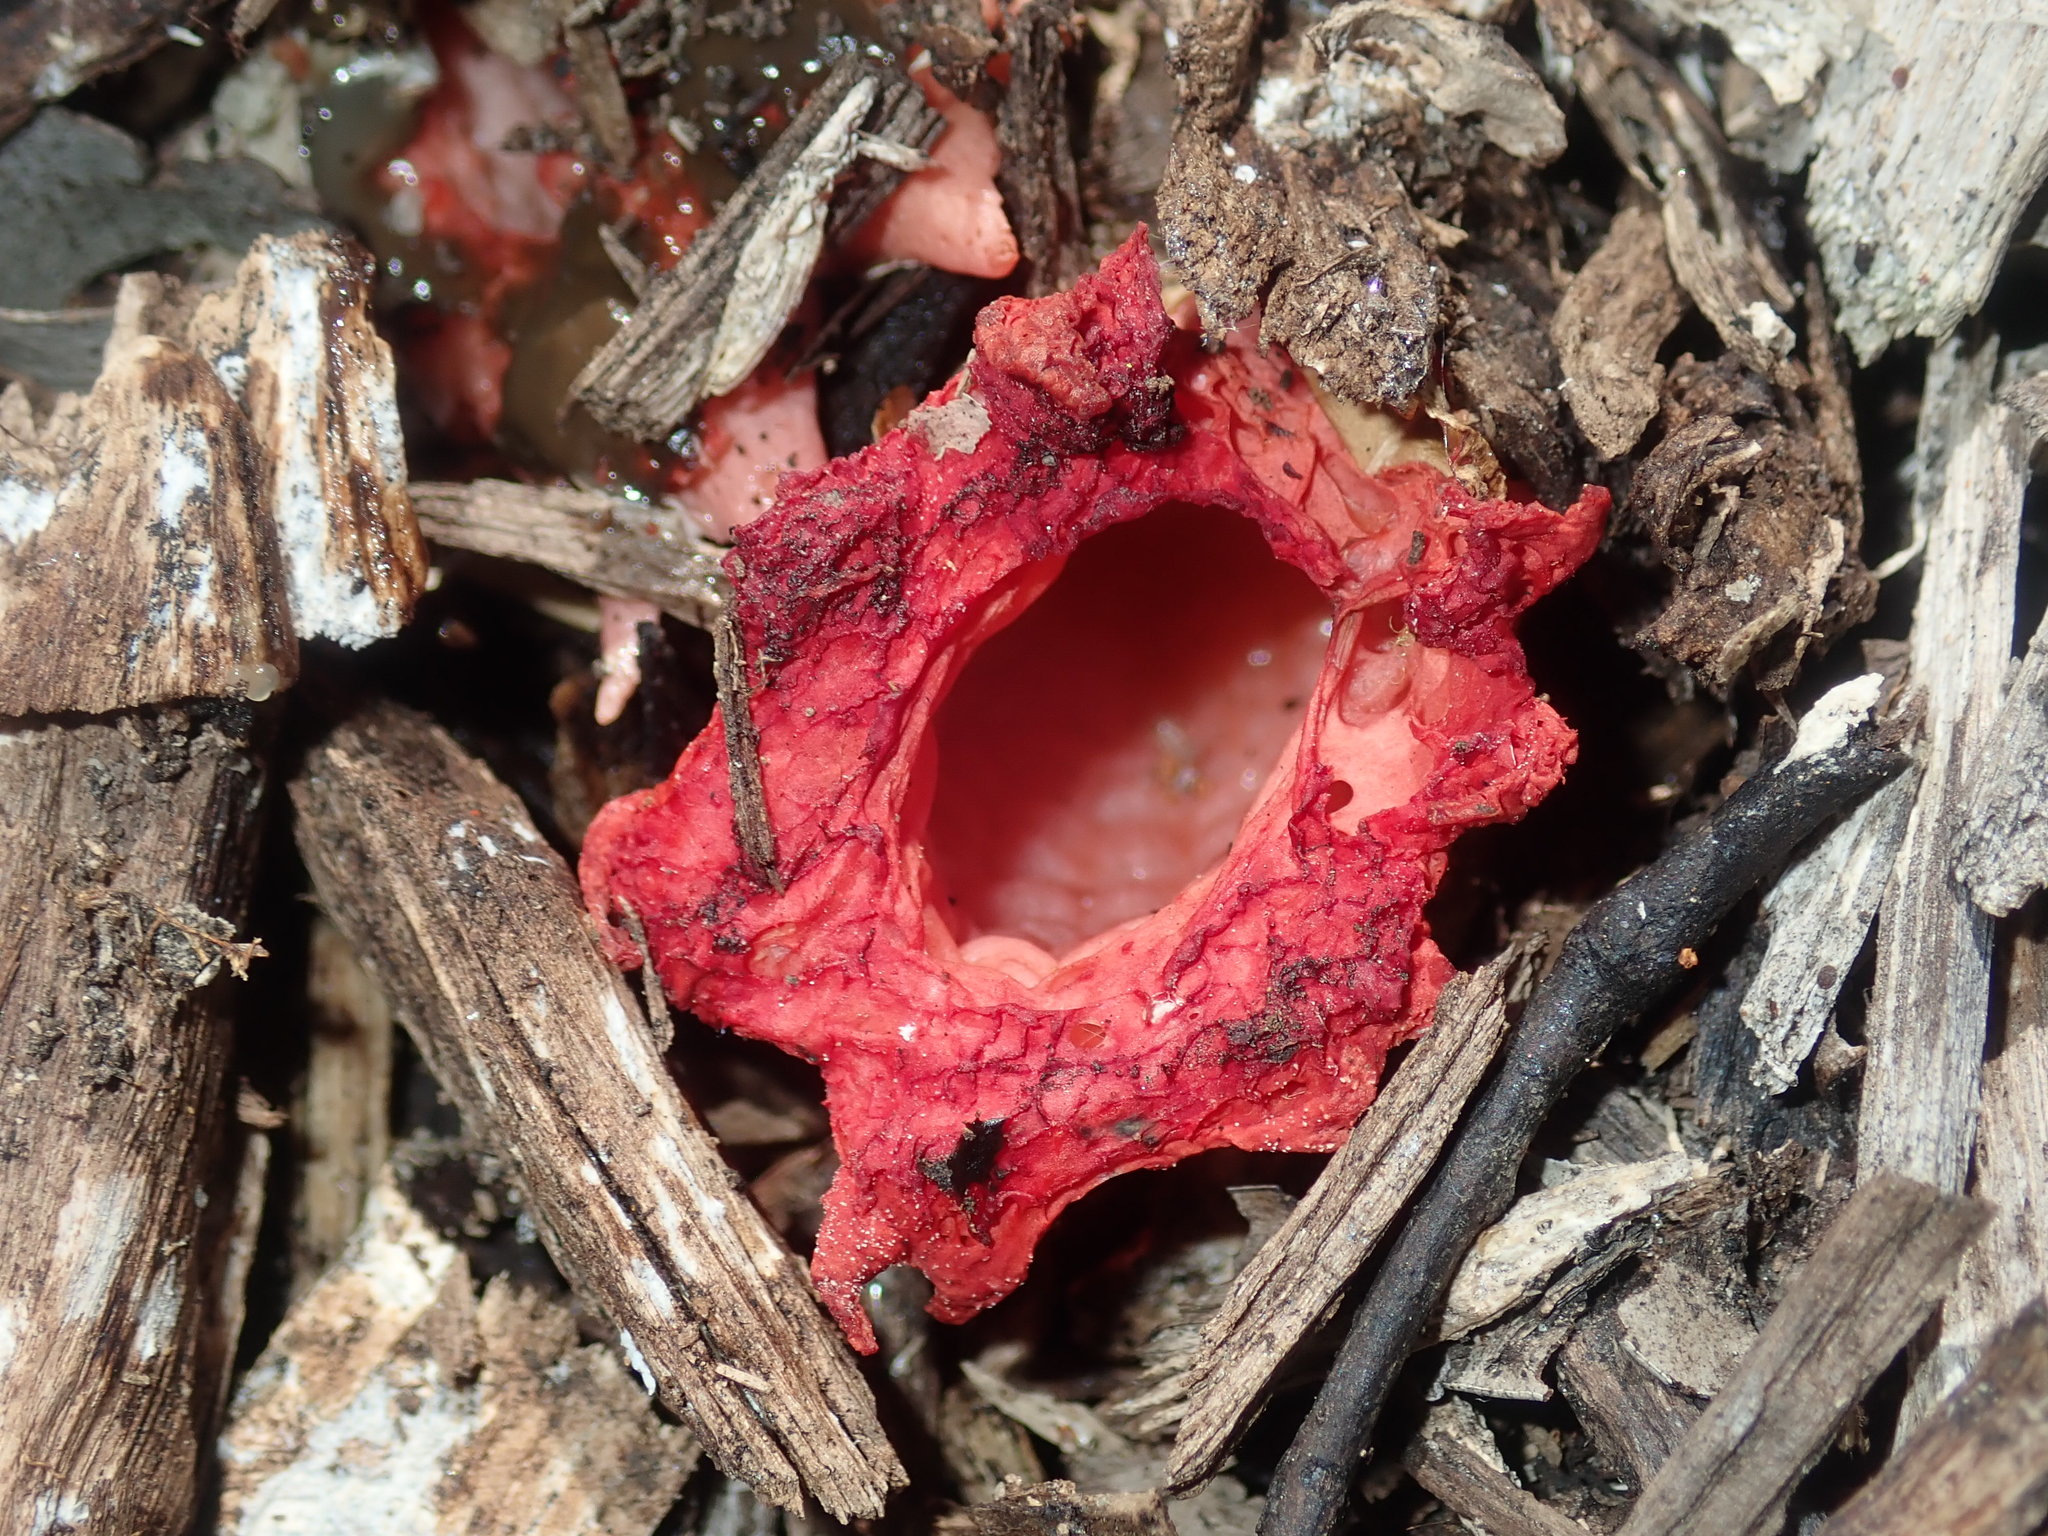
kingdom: Fungi
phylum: Basidiomycota
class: Agaricomycetes
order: Phallales
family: Phallaceae
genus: Aseroe
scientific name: Aseroe rubra
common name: Starfish fungus
